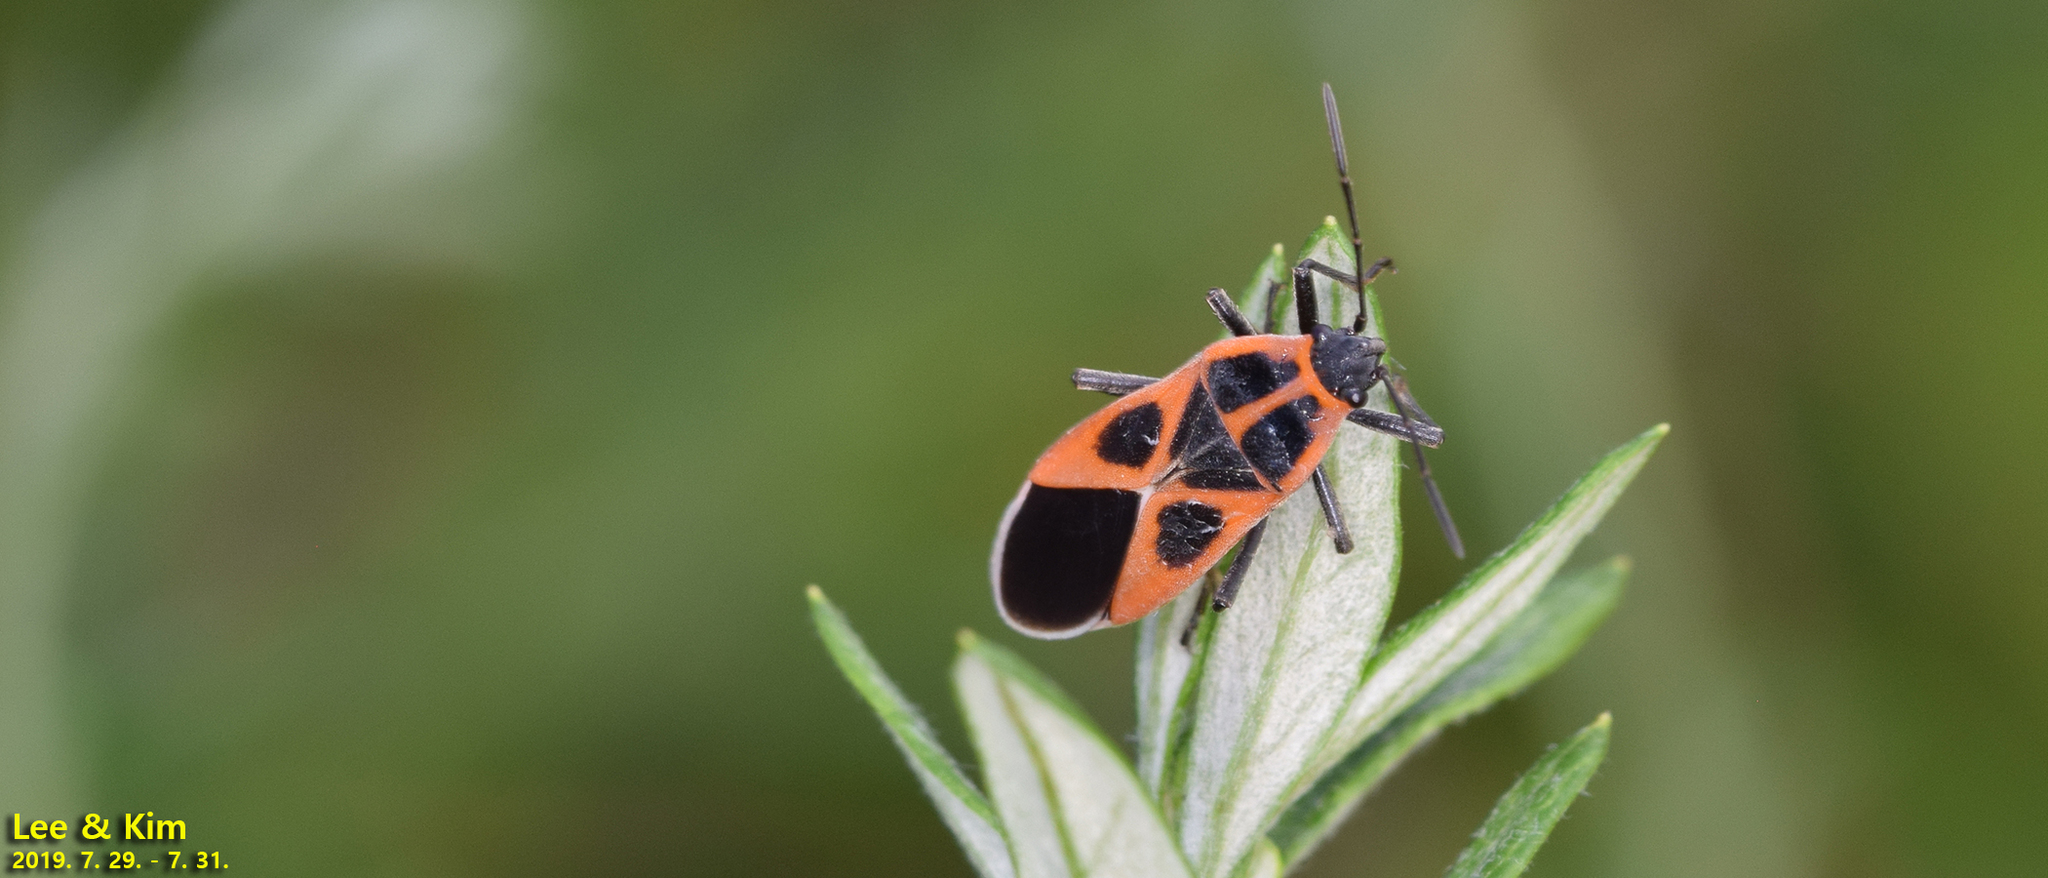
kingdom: Animalia
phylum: Arthropoda
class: Insecta
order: Hemiptera
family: Lygaeidae
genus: Tropidothorax
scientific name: Tropidothorax cruciger
